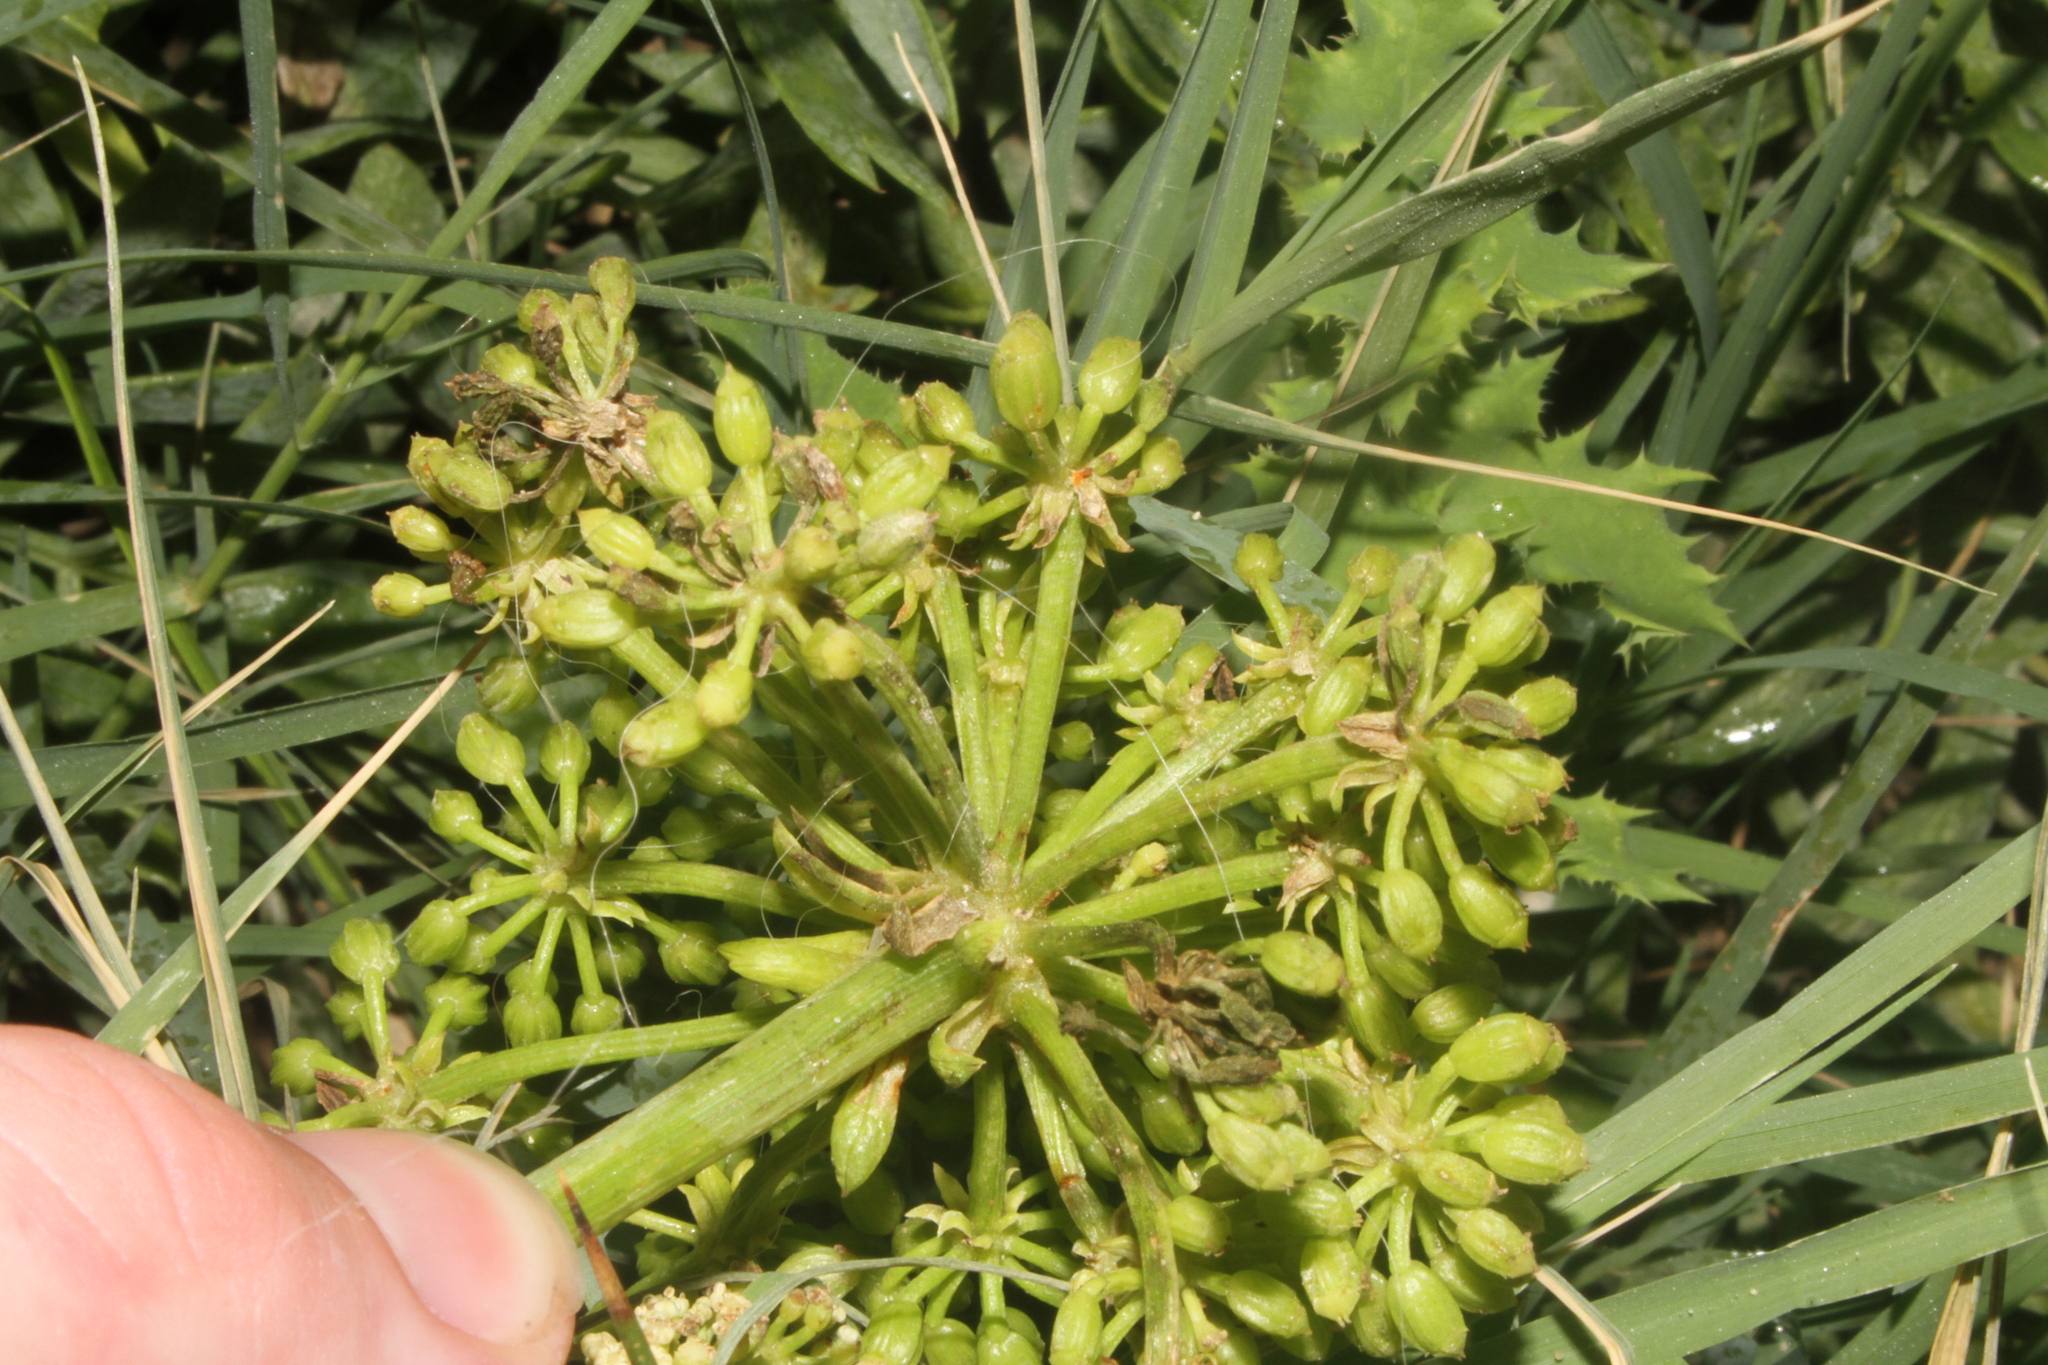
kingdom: Plantae
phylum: Tracheophyta
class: Magnoliopsida
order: Apiales
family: Apiaceae
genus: Crithmum
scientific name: Crithmum maritimum
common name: Rock samphire
